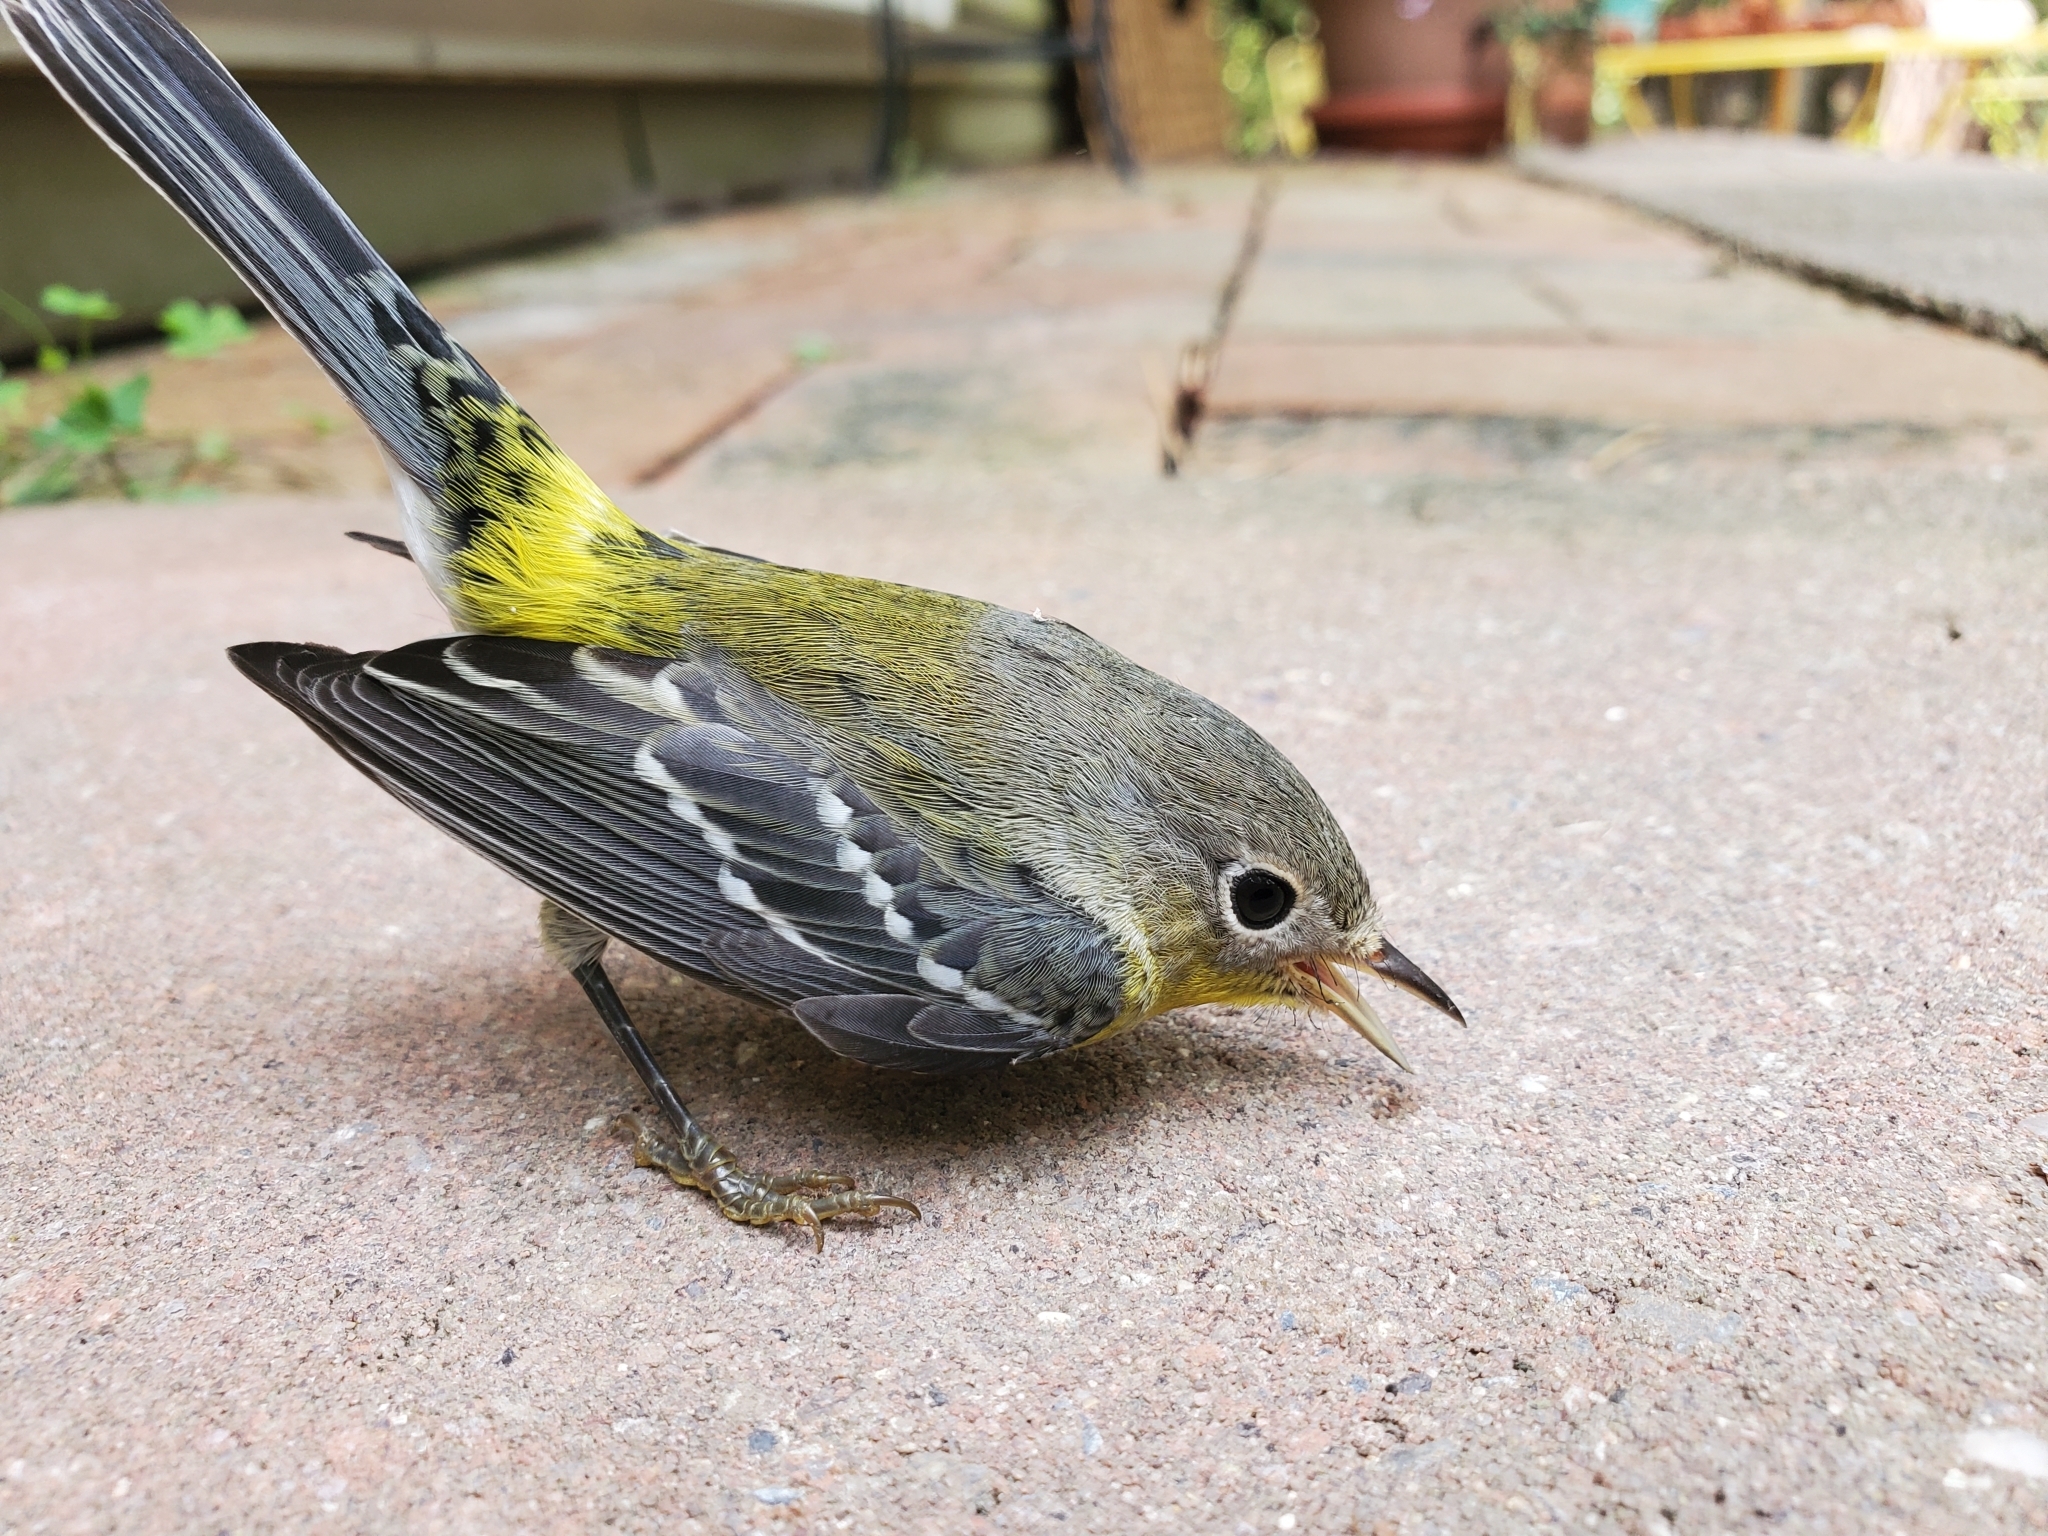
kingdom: Animalia
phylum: Chordata
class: Aves
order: Passeriformes
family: Parulidae
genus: Setophaga
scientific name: Setophaga magnolia
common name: Magnolia warbler
